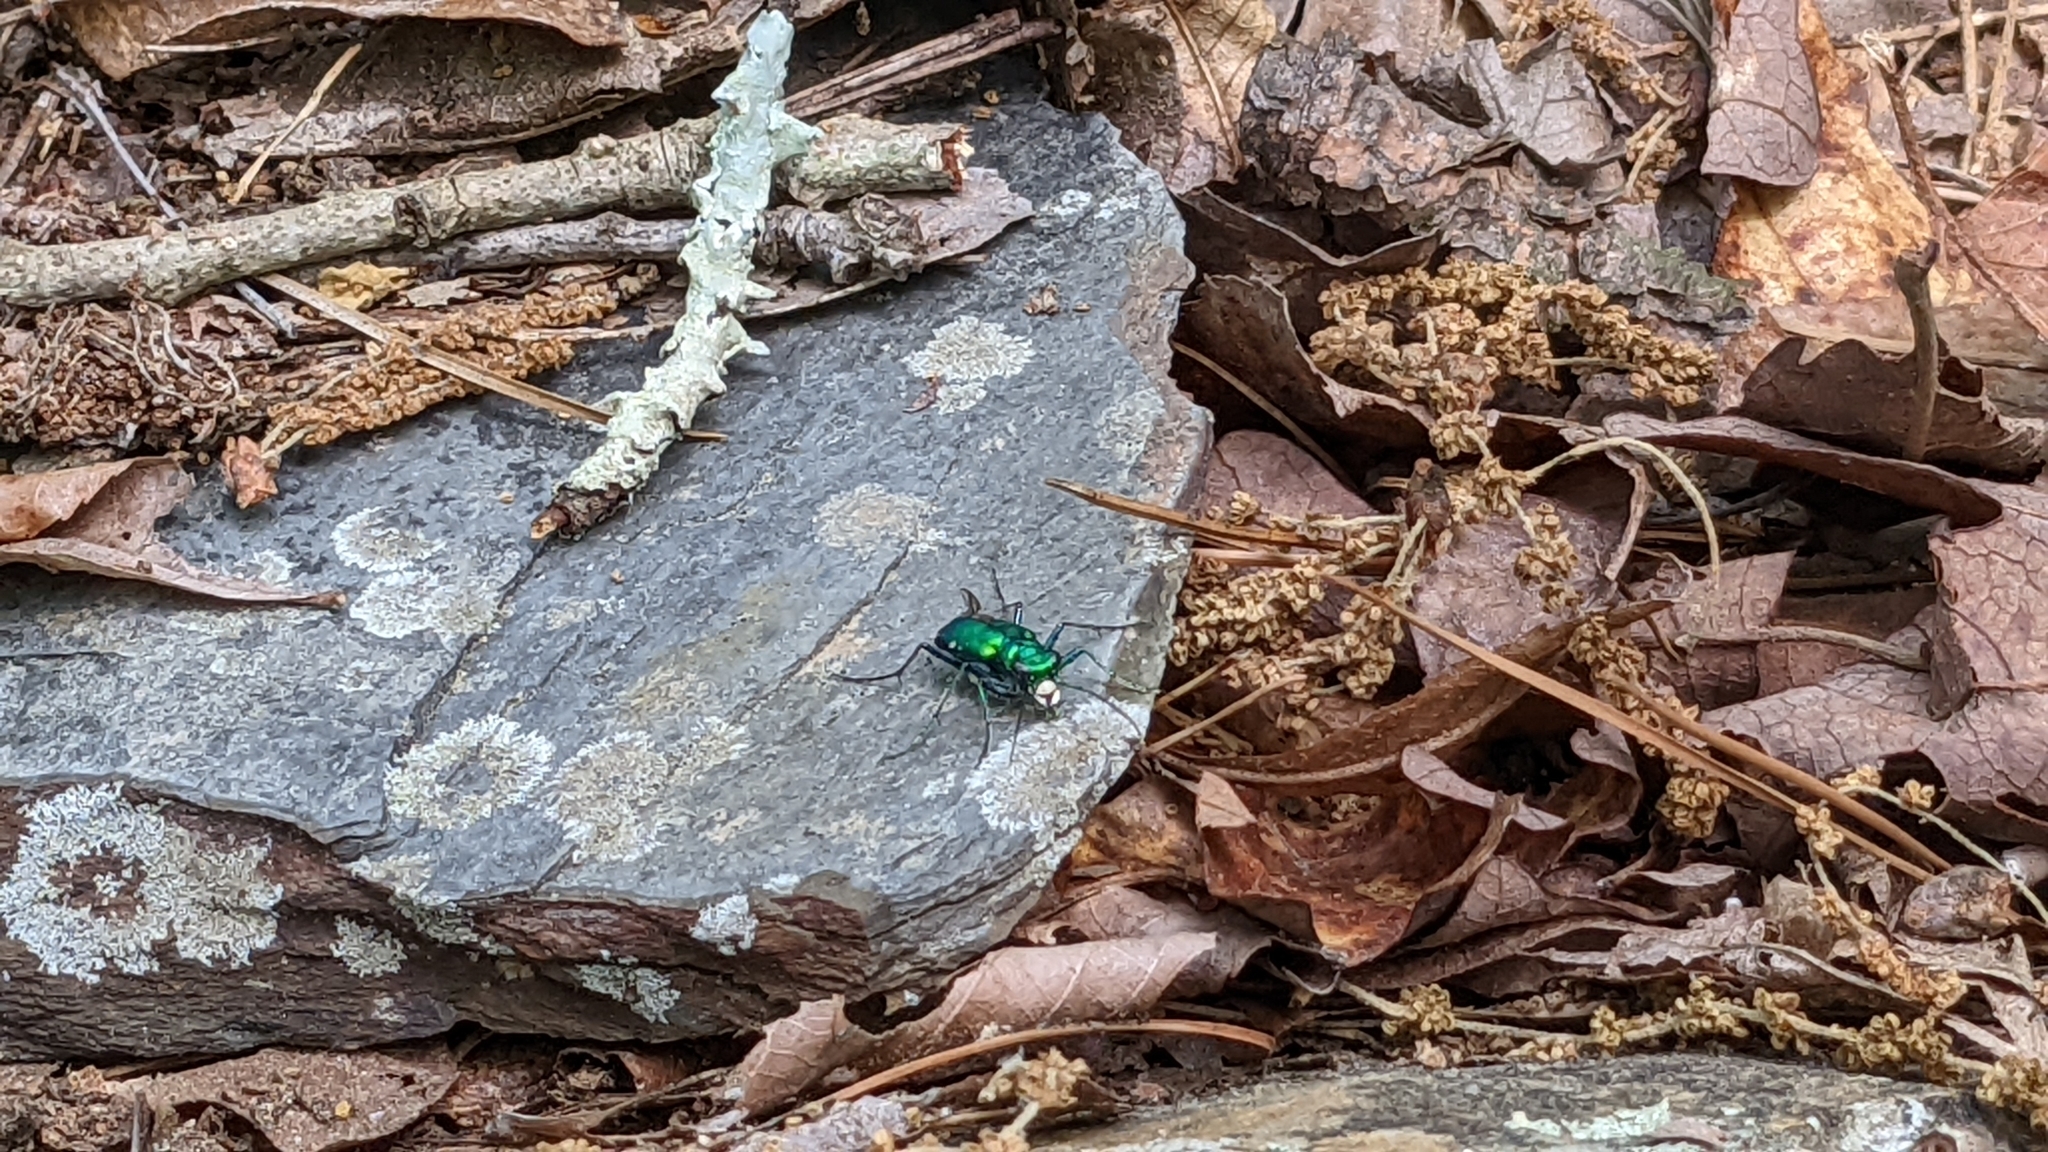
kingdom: Animalia
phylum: Arthropoda
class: Insecta
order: Coleoptera
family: Carabidae
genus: Cicindela
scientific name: Cicindela sexguttata
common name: Six-spotted tiger beetle
